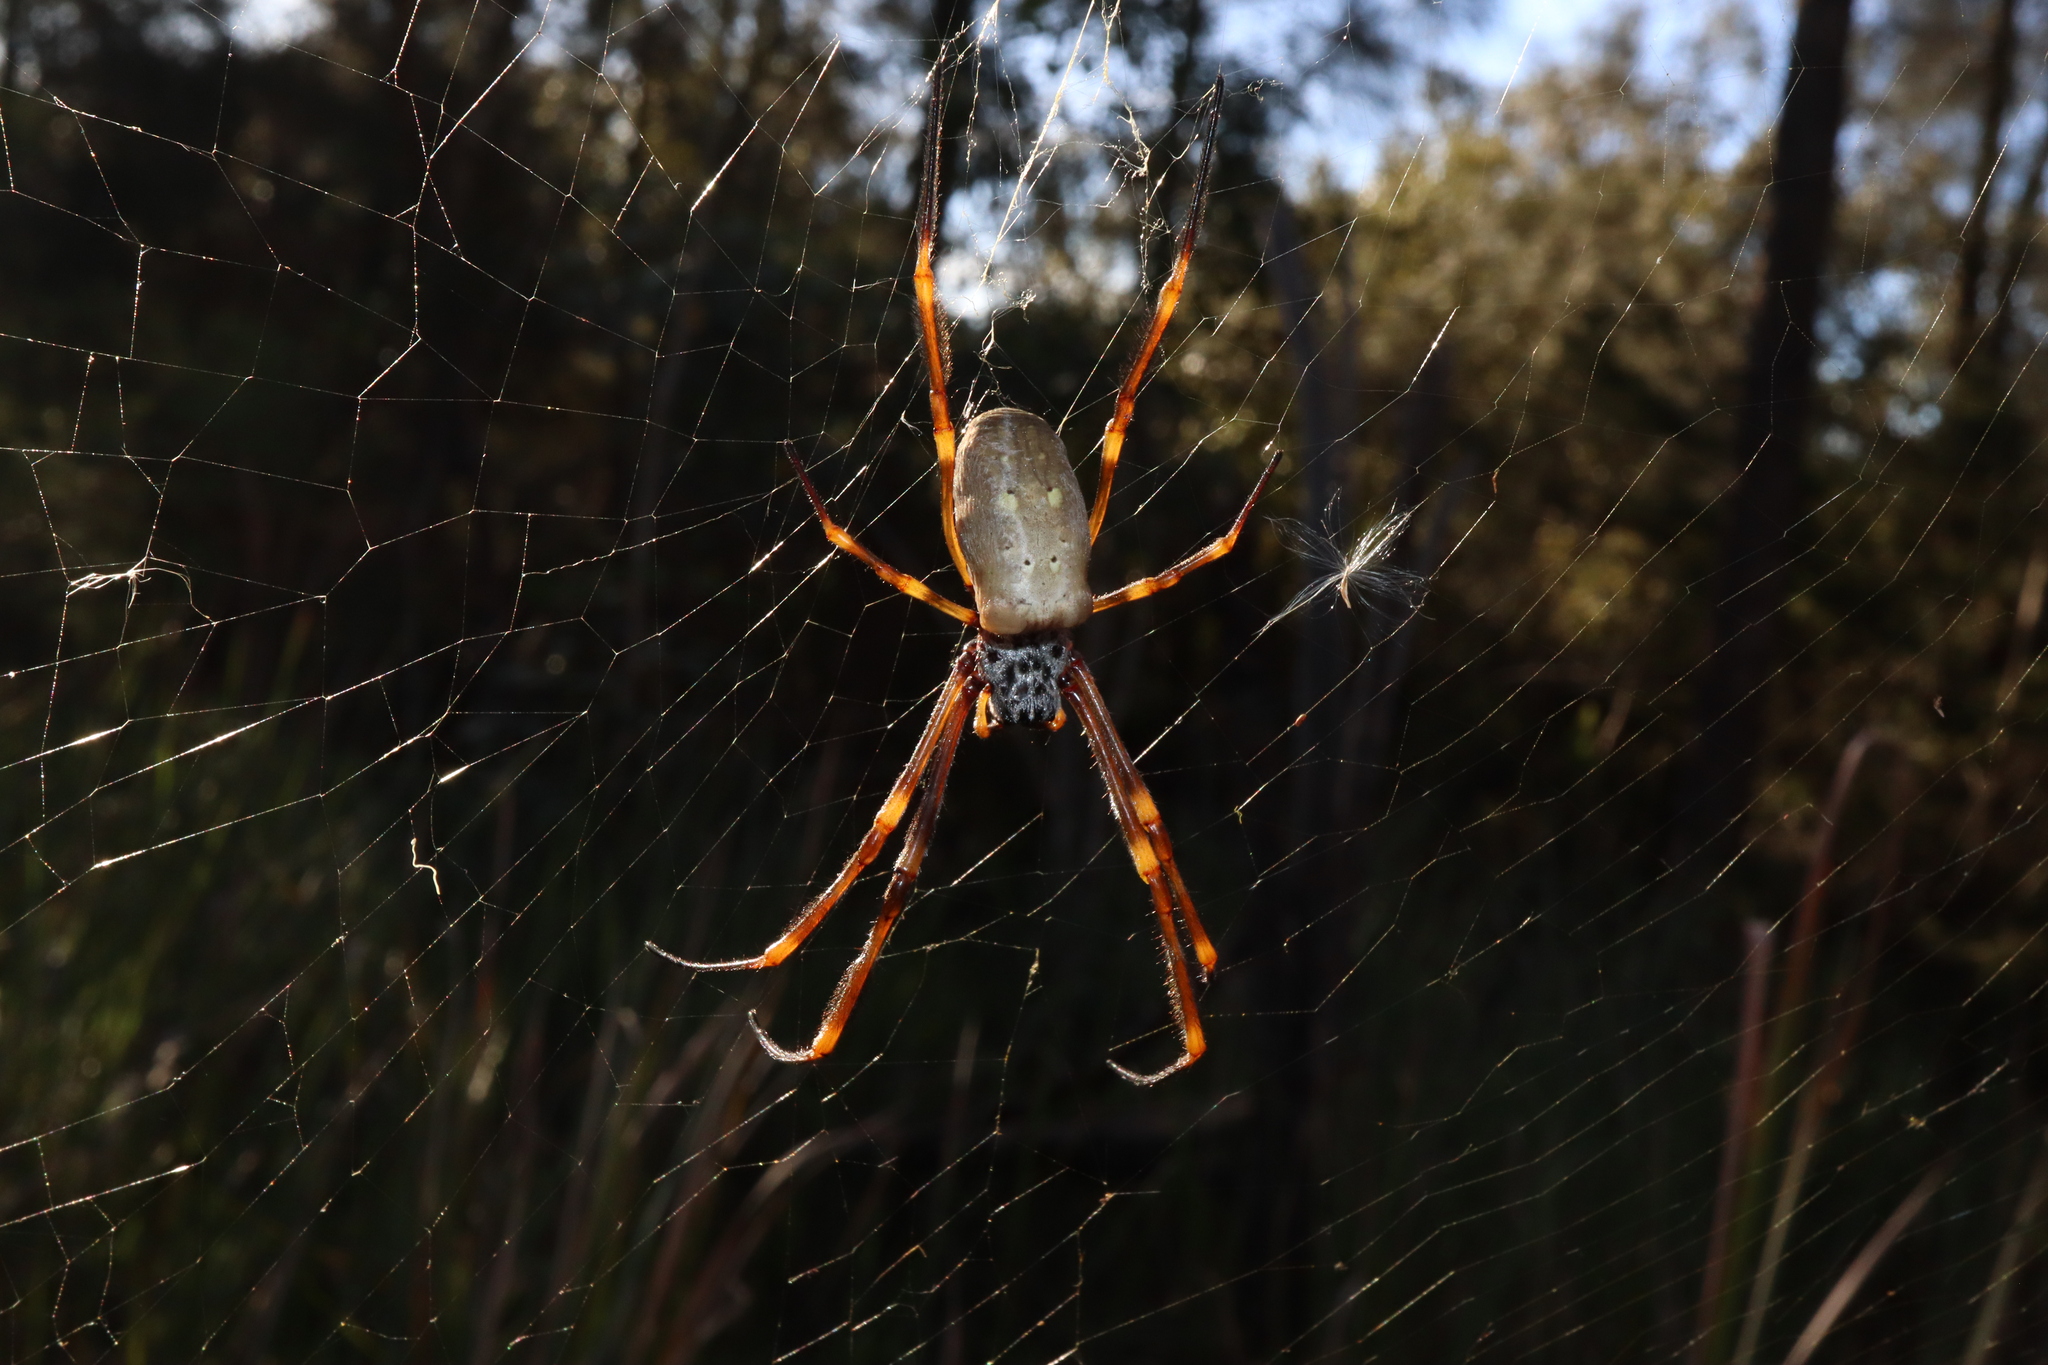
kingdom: Animalia
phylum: Arthropoda
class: Arachnida
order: Araneae
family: Araneidae
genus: Trichonephila
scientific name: Trichonephila plumipes
